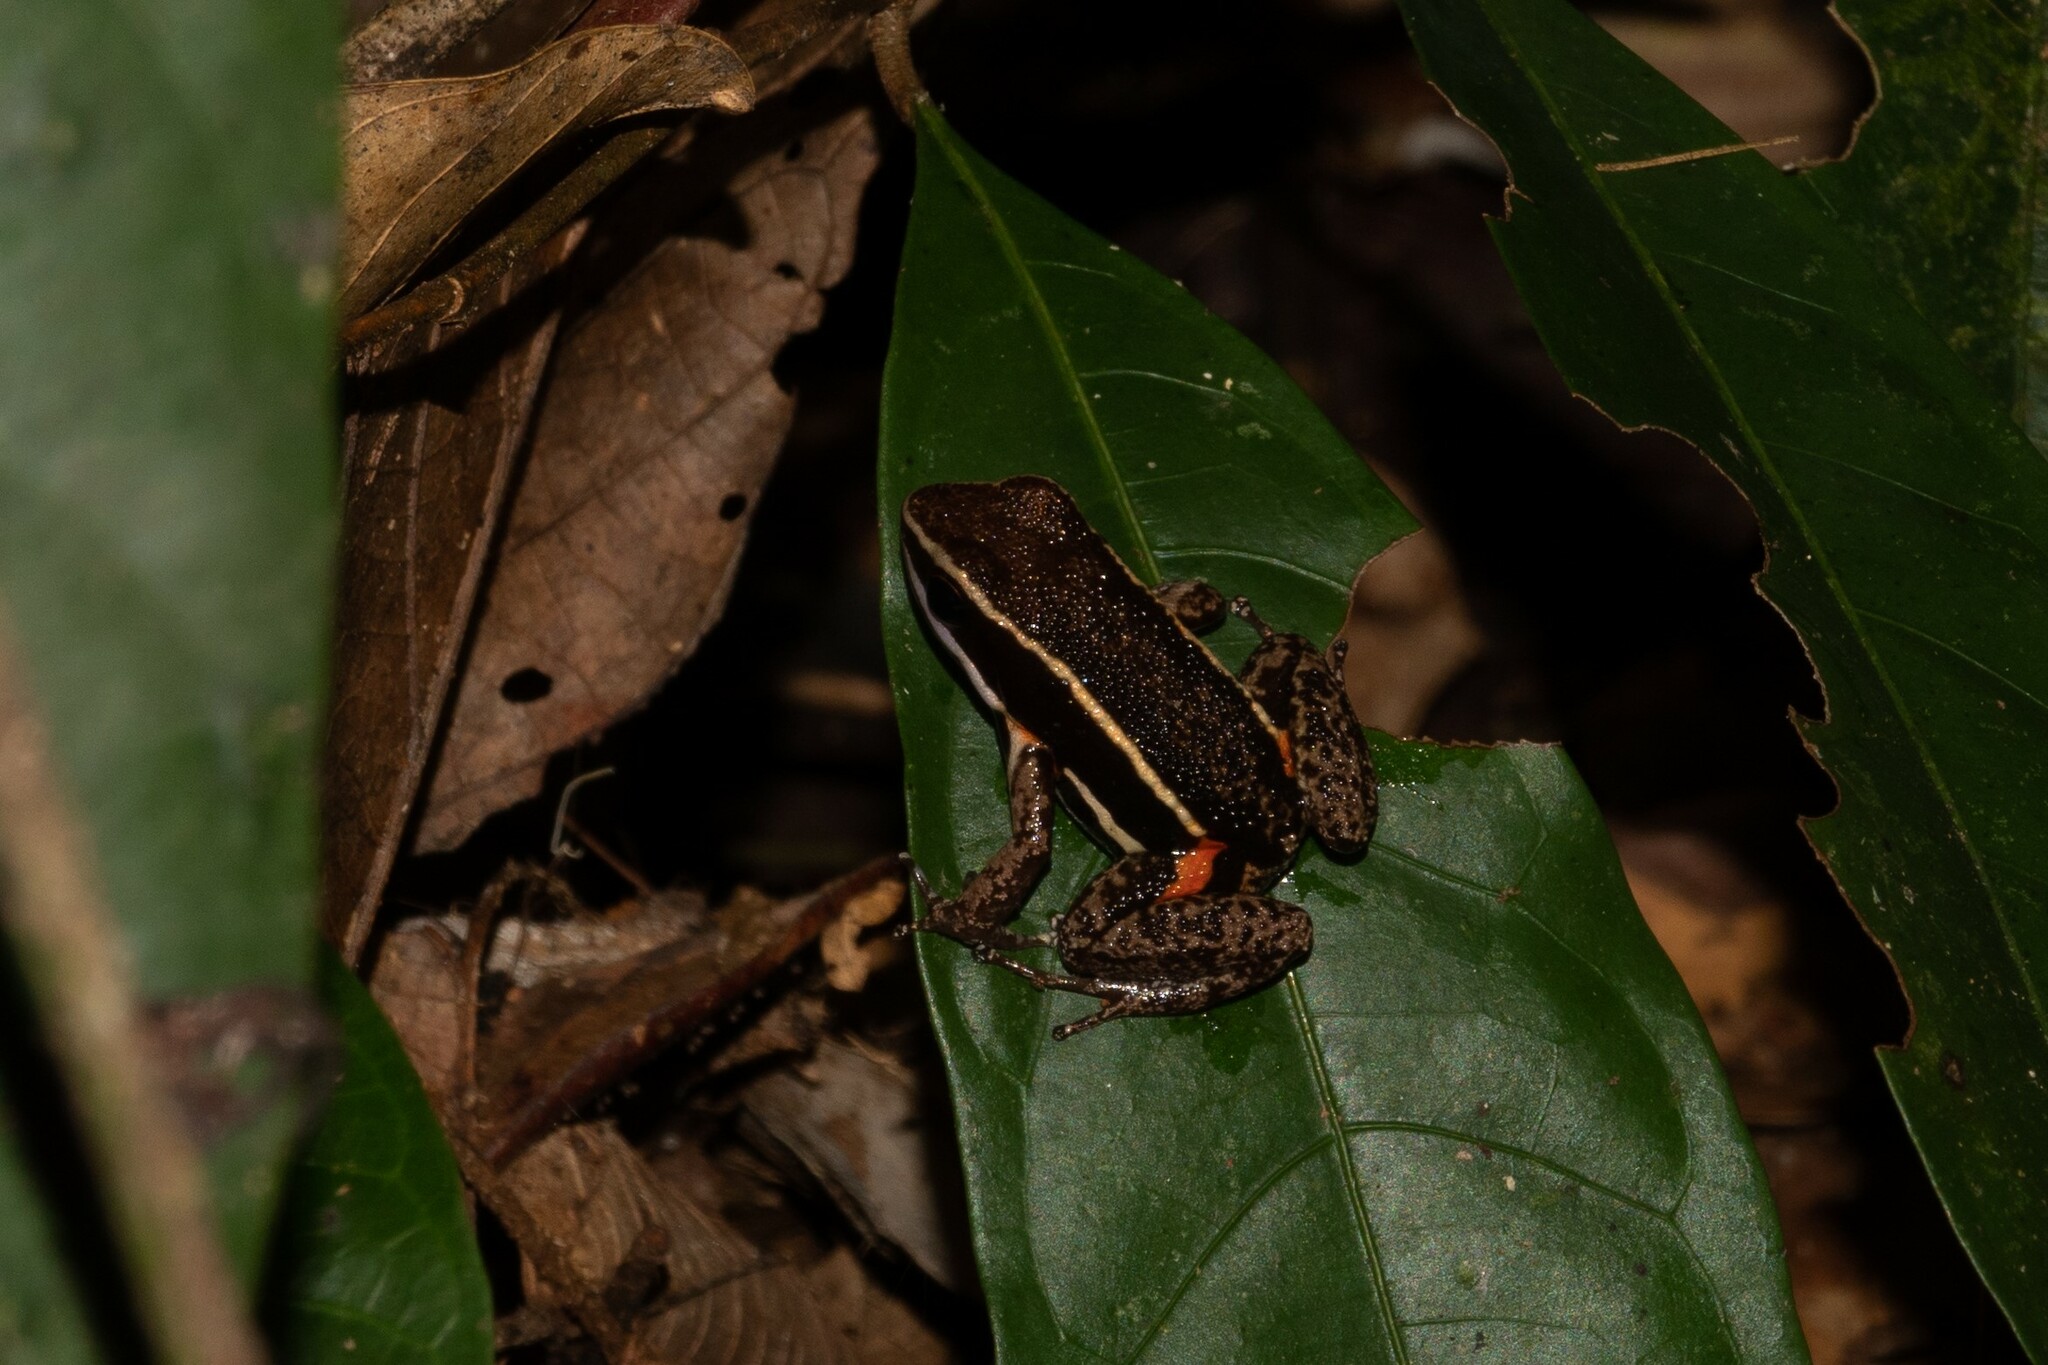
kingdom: Animalia
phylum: Chordata
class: Amphibia
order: Anura
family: Aromobatidae
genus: Allobates
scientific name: Allobates femoralis
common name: Brilliant-thighed poison frog
